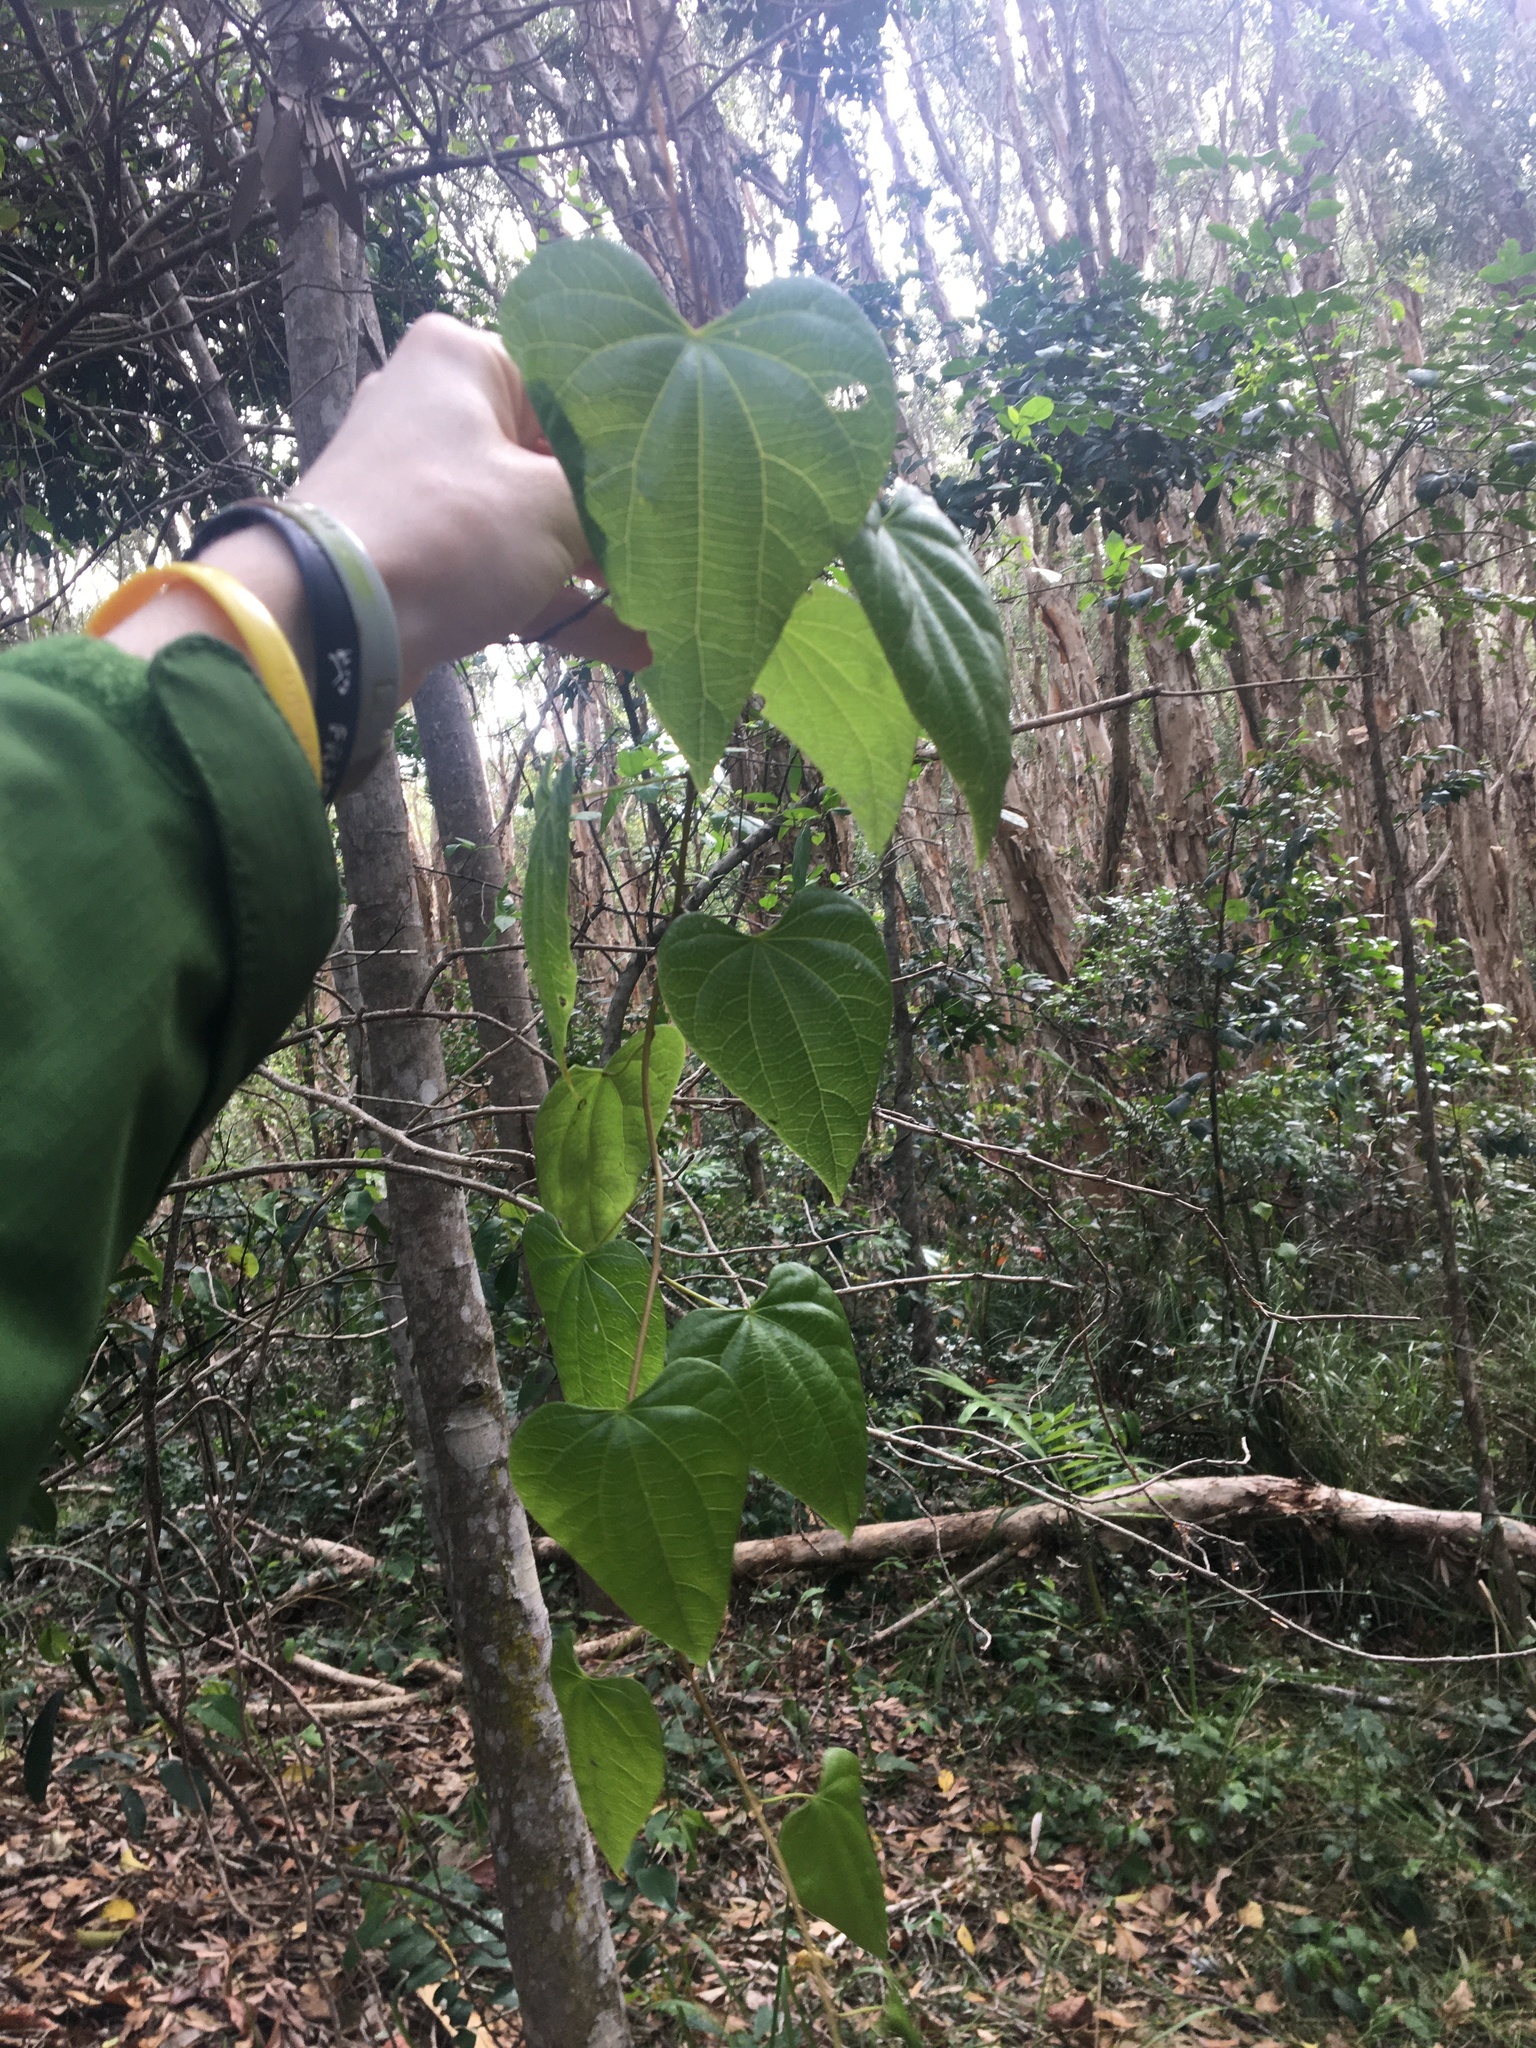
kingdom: Plantae
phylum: Tracheophyta
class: Magnoliopsida
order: Ranunculales
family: Menispermaceae
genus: Sarcopetalum
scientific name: Sarcopetalum harveyanum
